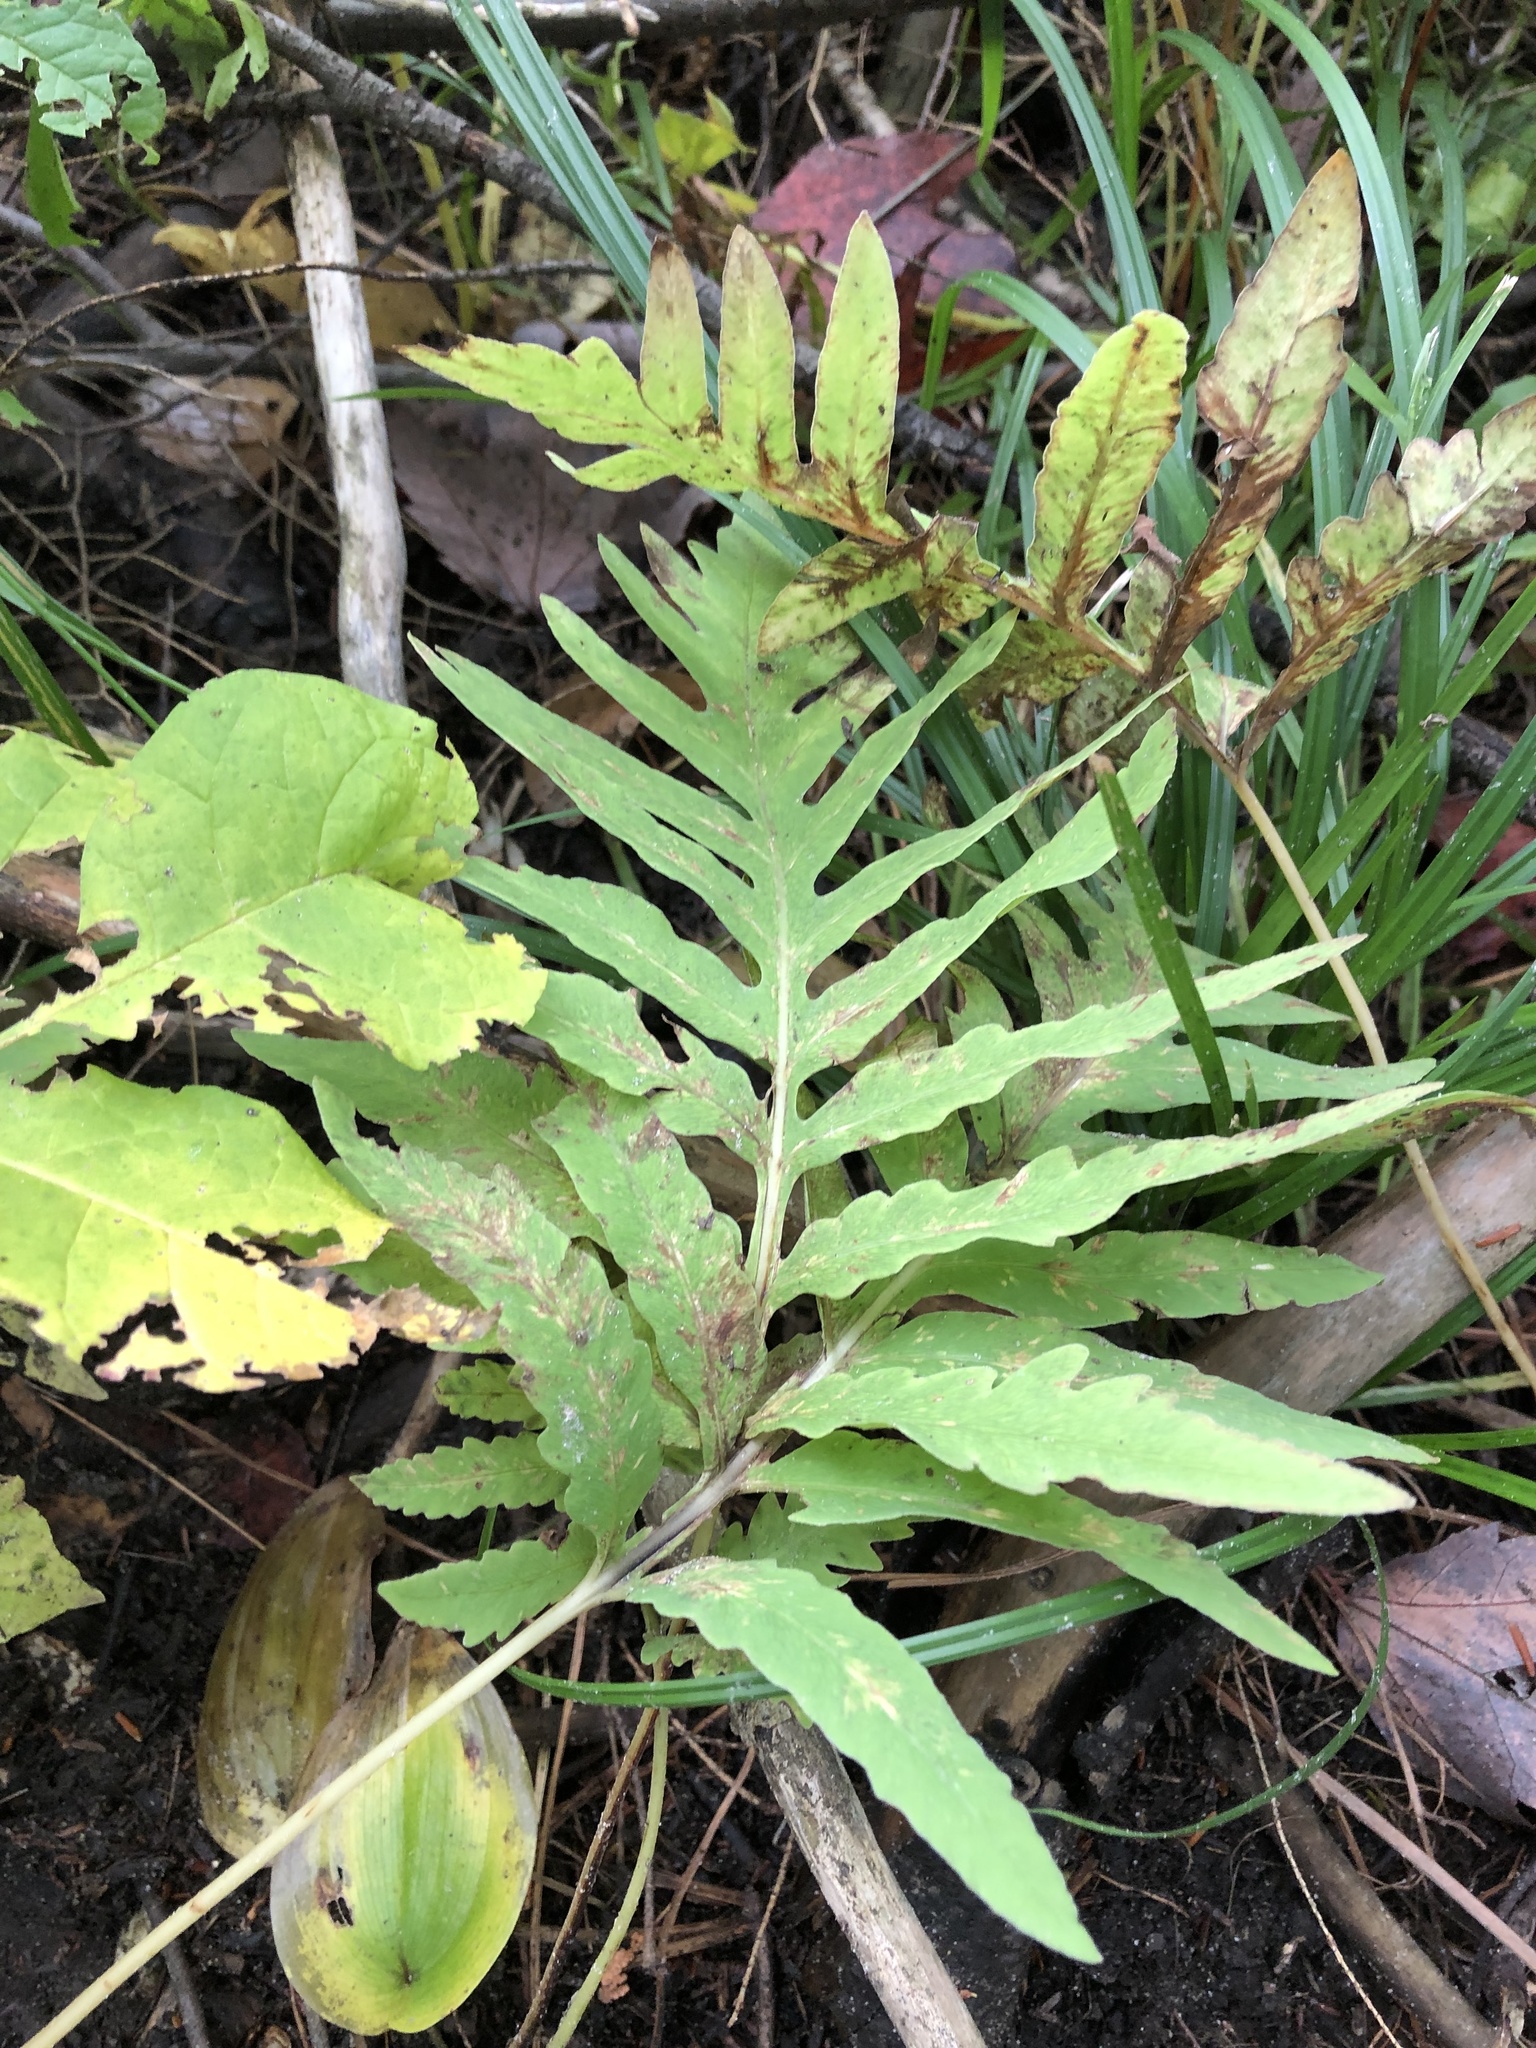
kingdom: Plantae
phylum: Tracheophyta
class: Polypodiopsida
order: Polypodiales
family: Onocleaceae
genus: Onoclea
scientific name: Onoclea sensibilis
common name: Sensitive fern
